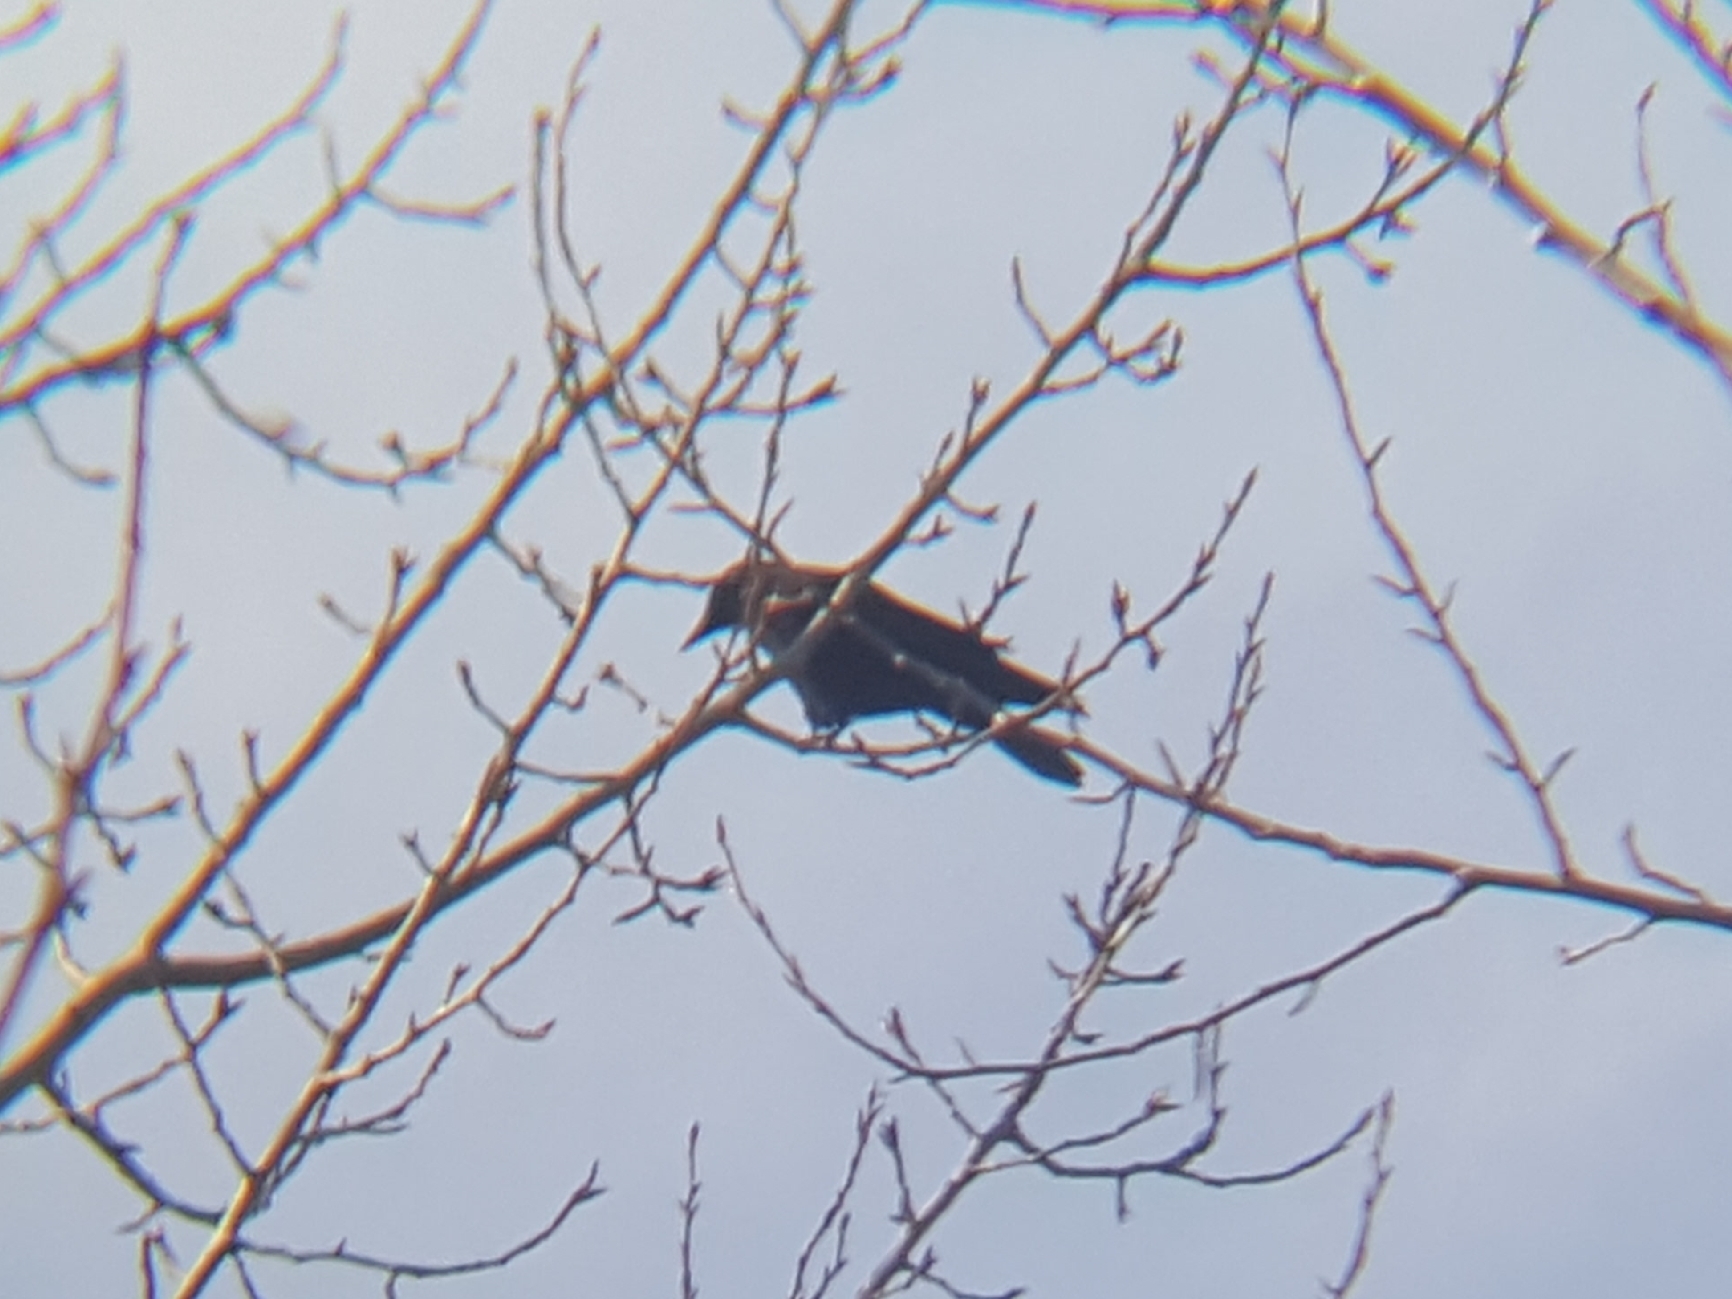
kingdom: Animalia
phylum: Chordata
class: Aves
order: Passeriformes
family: Corvidae
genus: Corvus
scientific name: Corvus brachyrhynchos
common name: American crow
